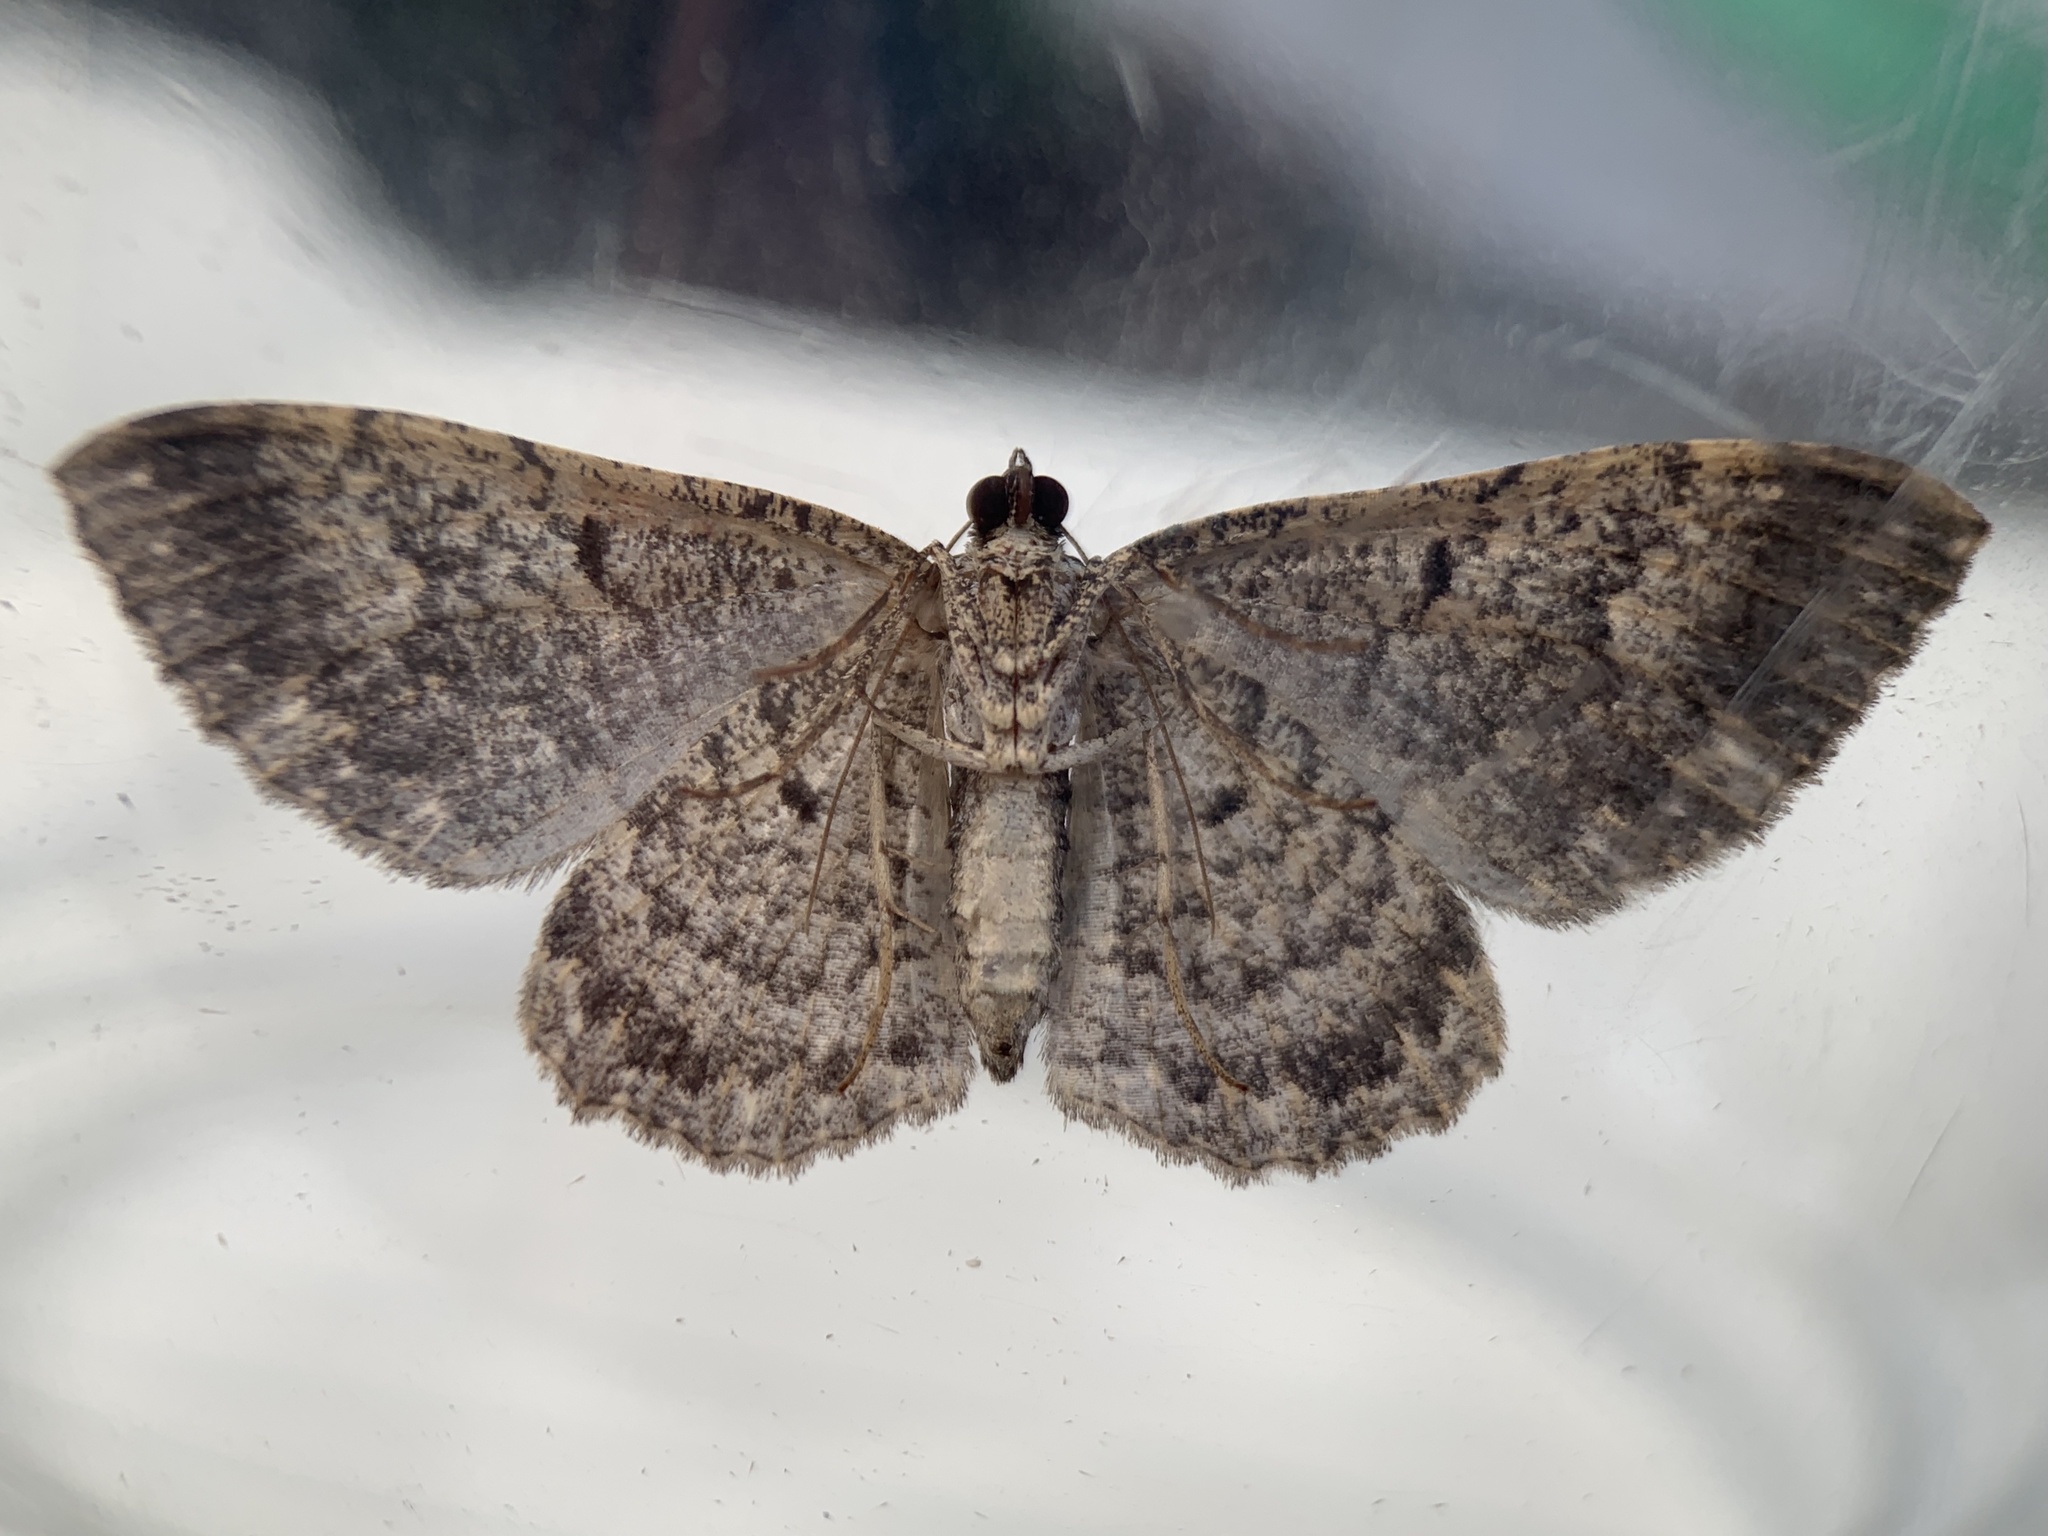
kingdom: Animalia
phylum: Arthropoda
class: Insecta
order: Lepidoptera
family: Geometridae
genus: Disclisioprocta
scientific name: Disclisioprocta stellata
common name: Somber carpet
